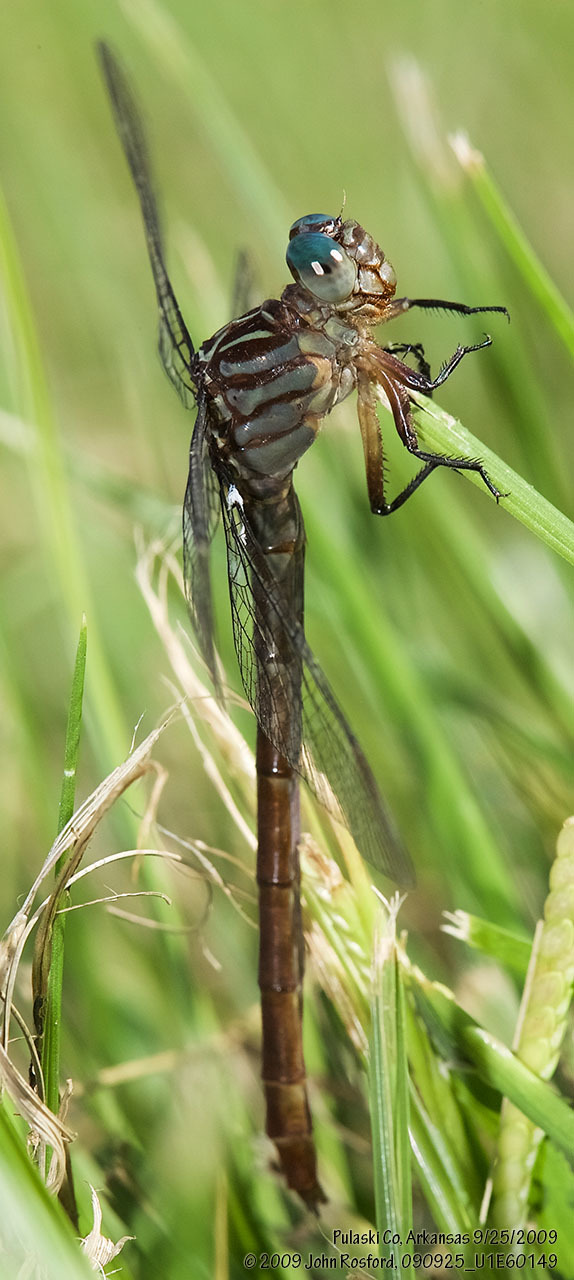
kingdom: Animalia
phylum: Arthropoda
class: Insecta
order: Odonata
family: Gomphidae
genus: Stylurus
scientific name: Stylurus plagiatus
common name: Russet-tipped clubtail
